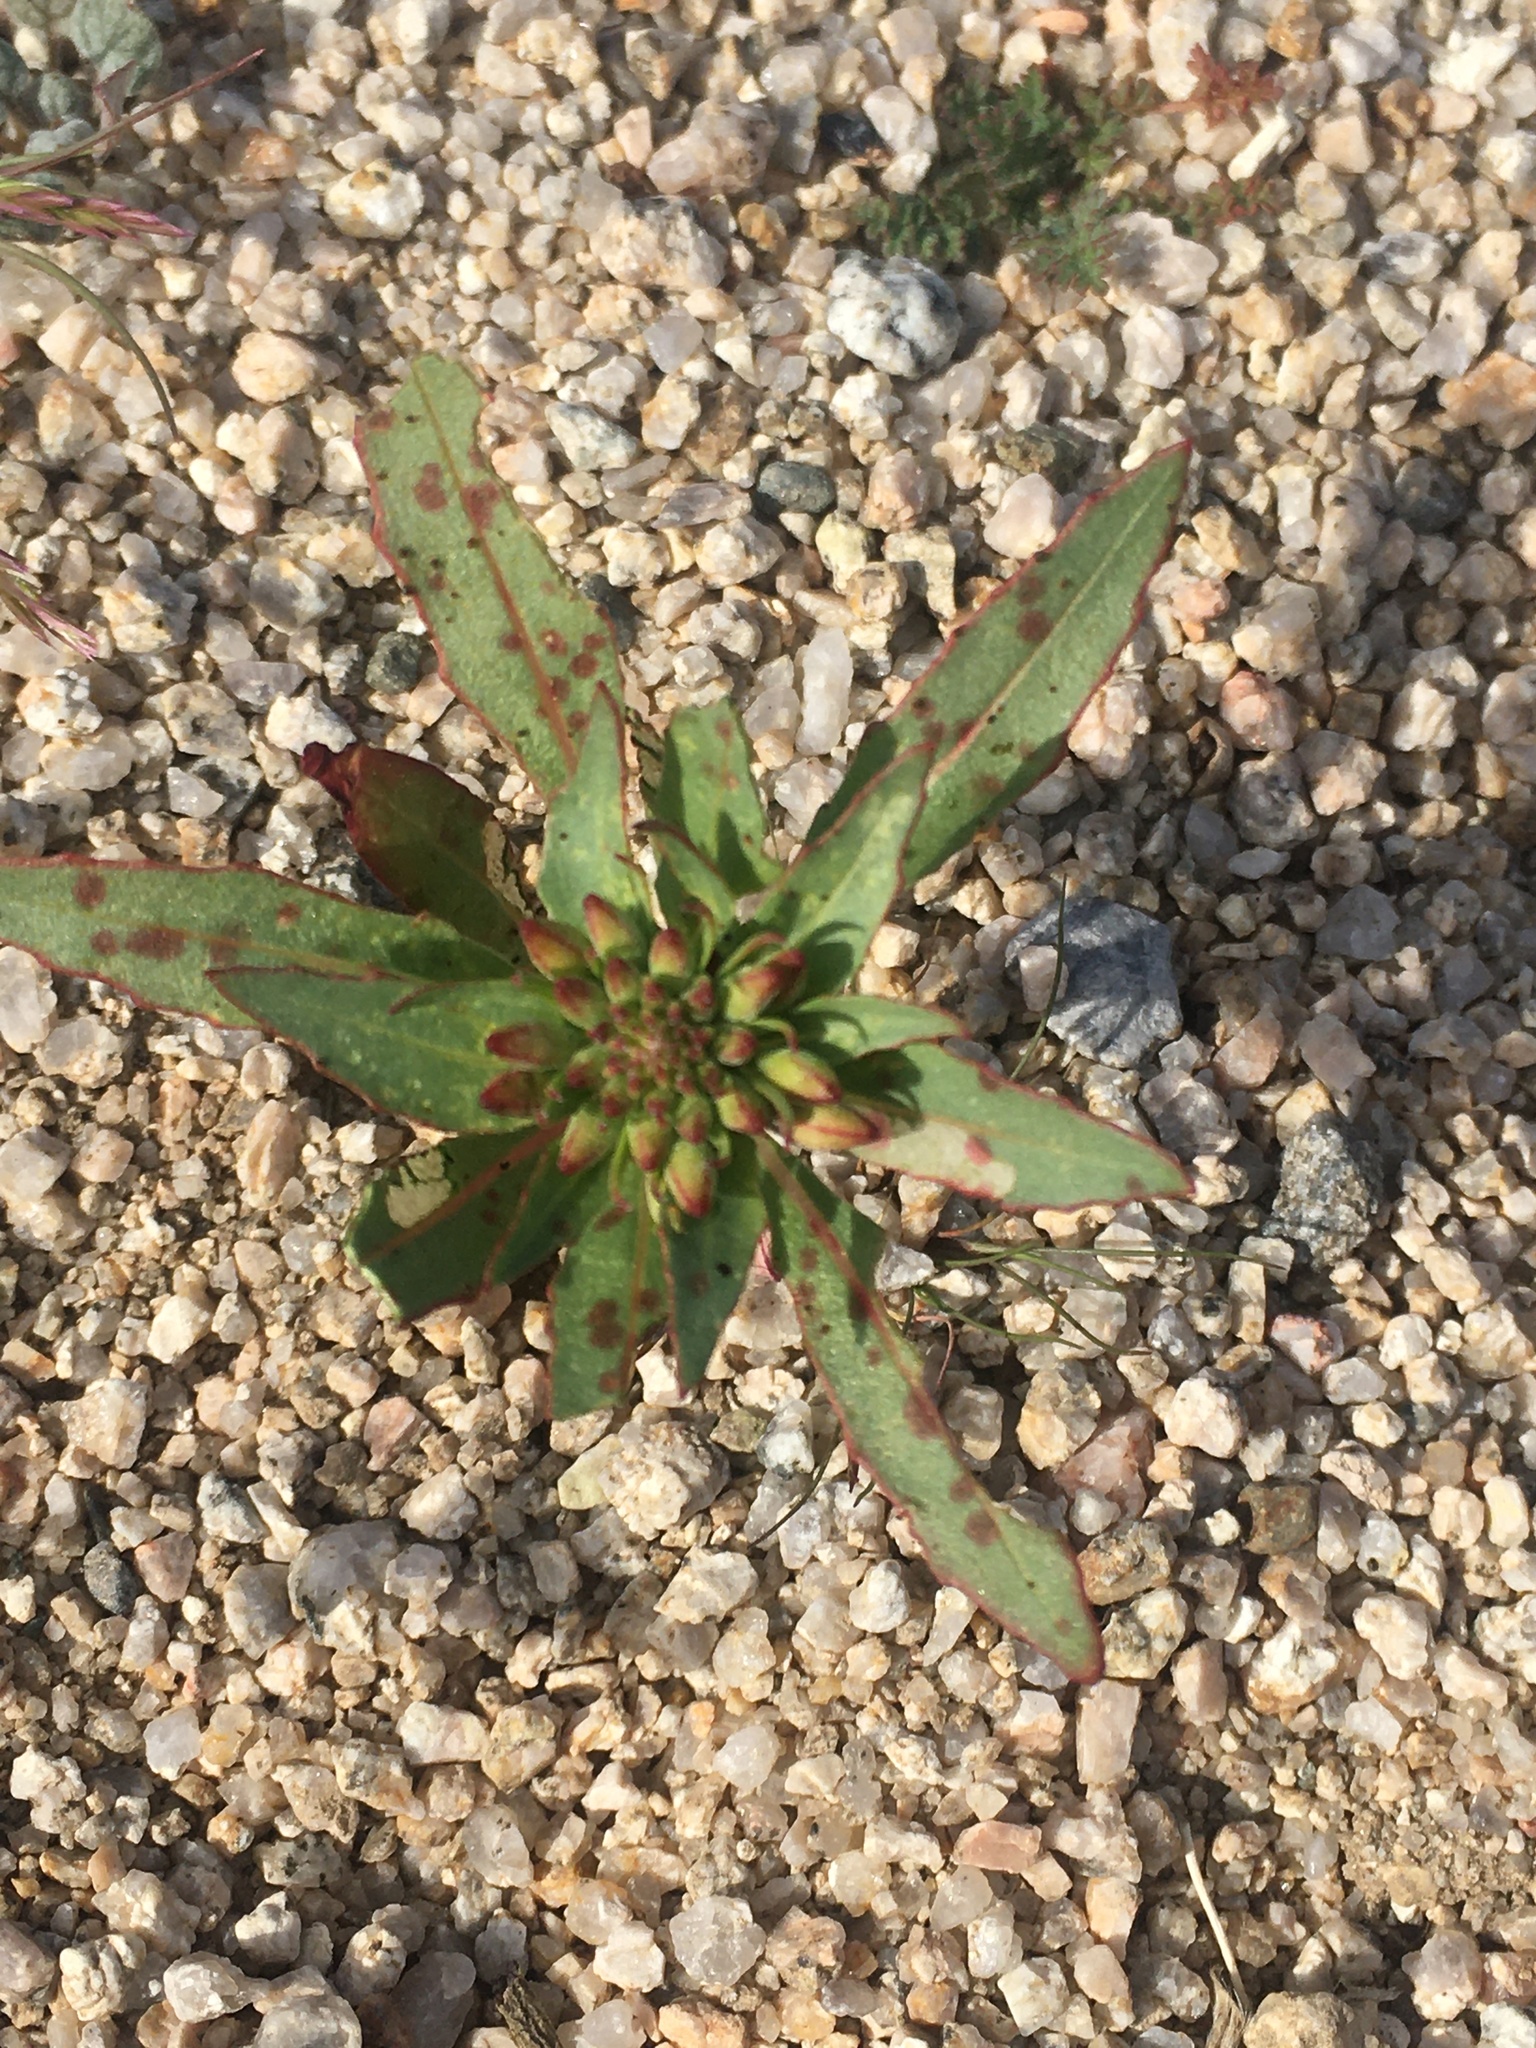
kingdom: Plantae
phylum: Tracheophyta
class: Magnoliopsida
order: Myrtales
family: Onagraceae
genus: Eremothera
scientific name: Eremothera boothii
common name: Booth's evening primrose
